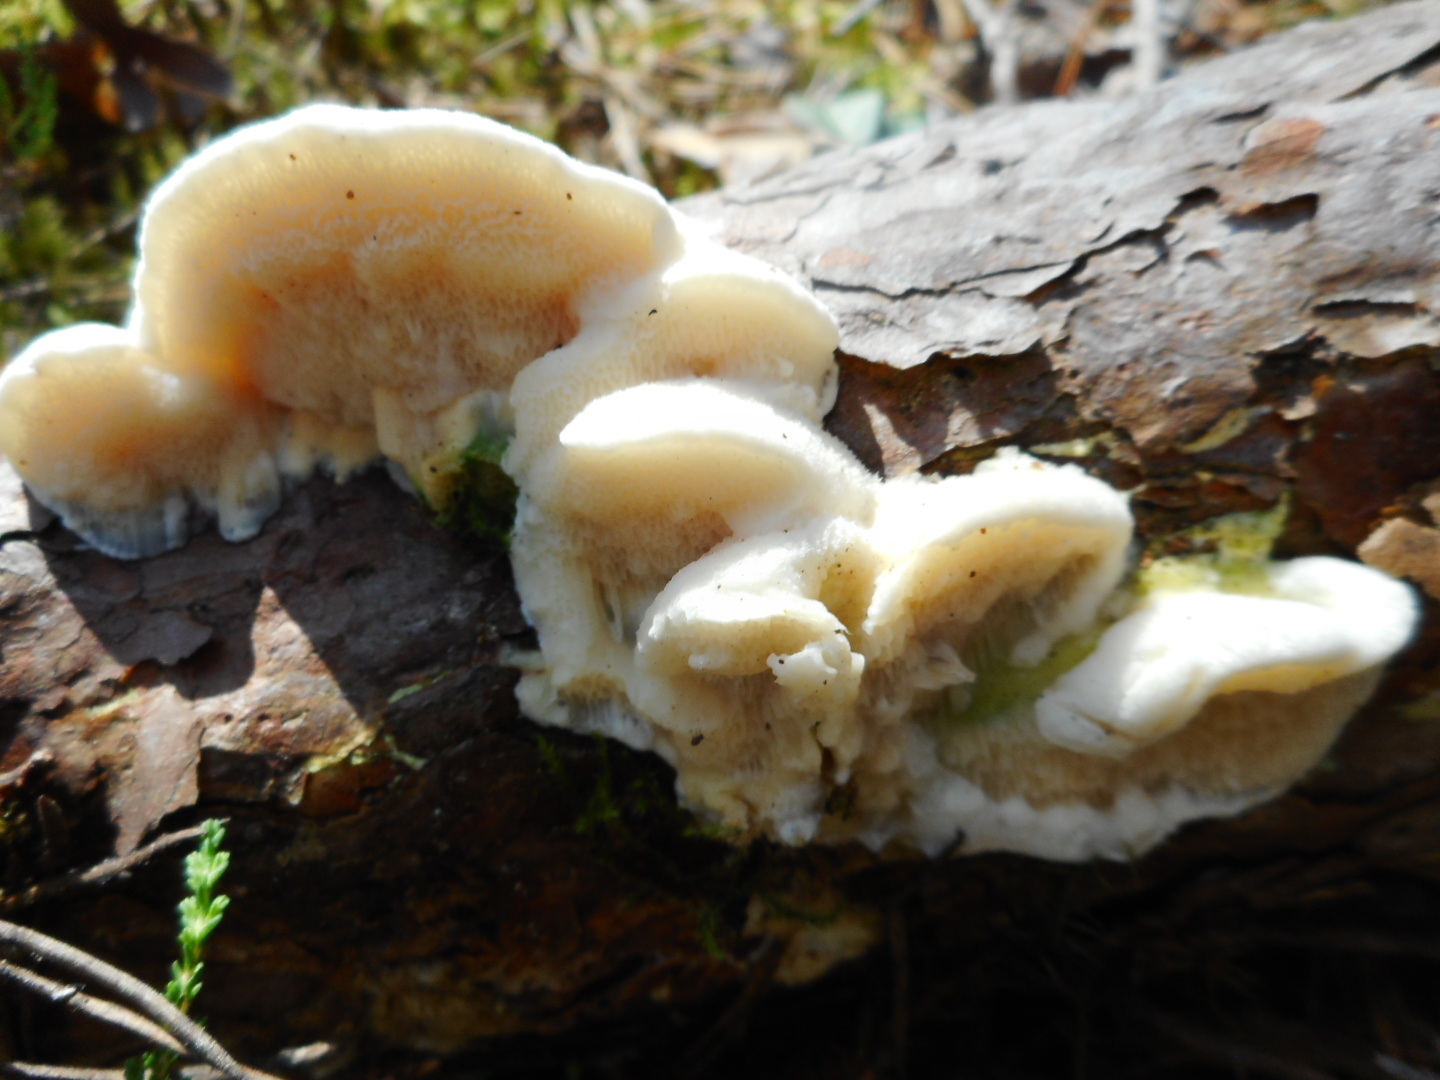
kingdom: Fungi
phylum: Basidiomycota
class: Agaricomycetes
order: Polyporales
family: Polyporaceae
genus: Diplomitoporus
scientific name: Diplomitoporus flavescens
